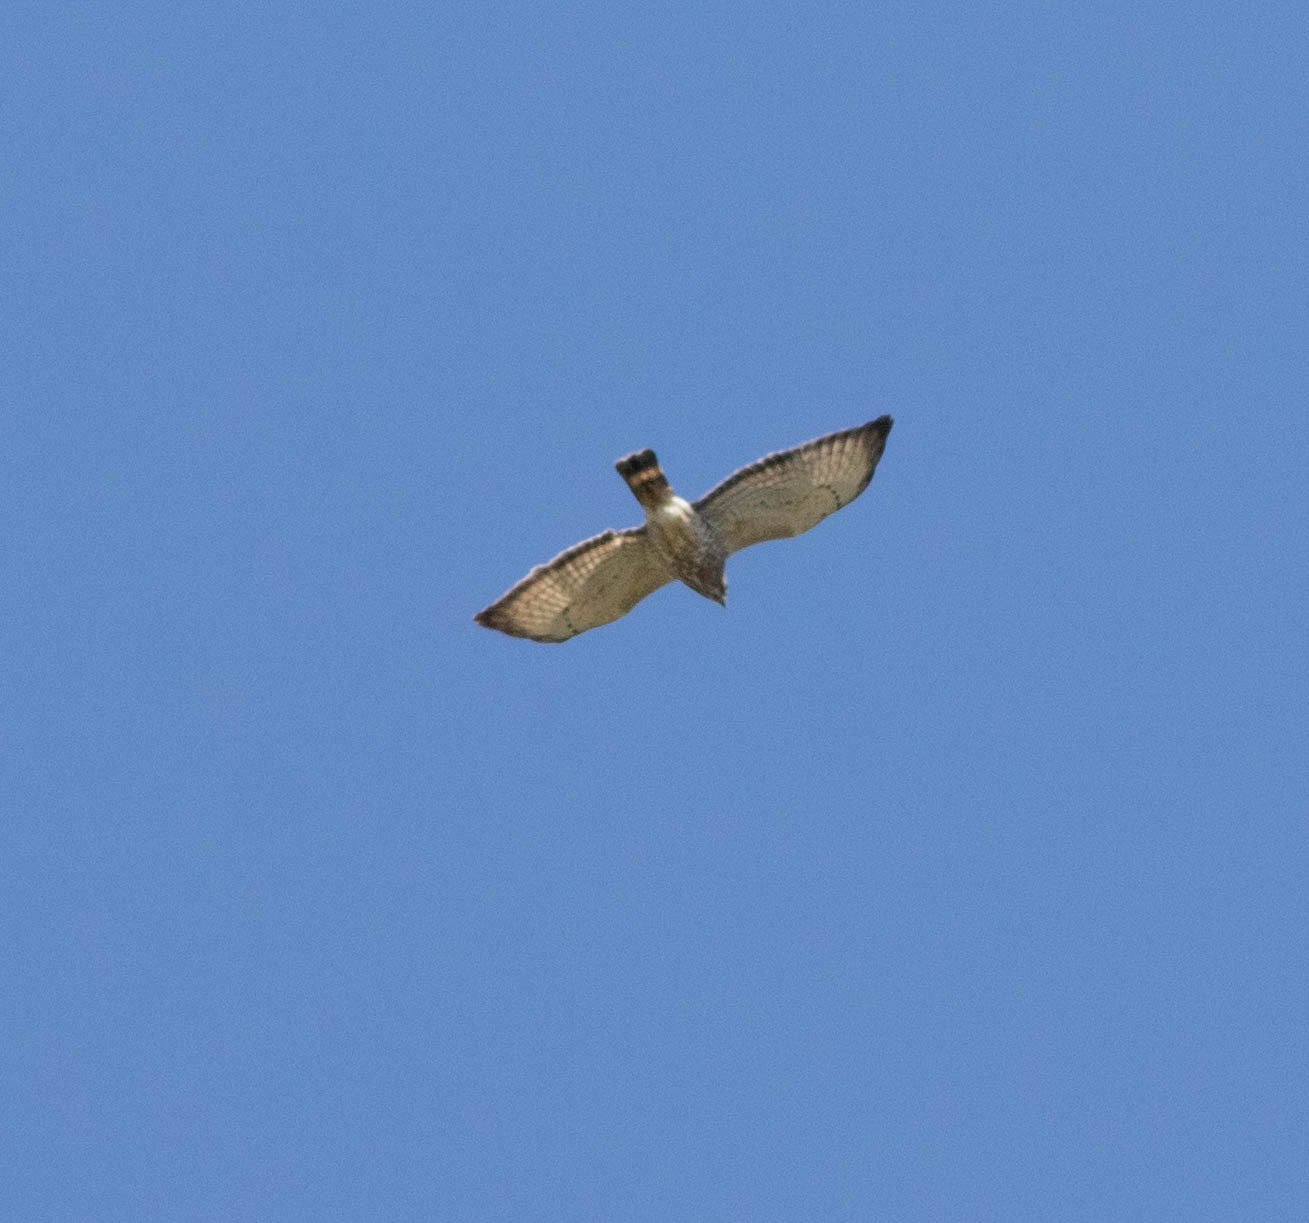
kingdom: Animalia
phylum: Chordata
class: Aves
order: Accipitriformes
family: Accipitridae
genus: Buteo
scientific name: Buteo platypterus
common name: Broad-winged hawk
